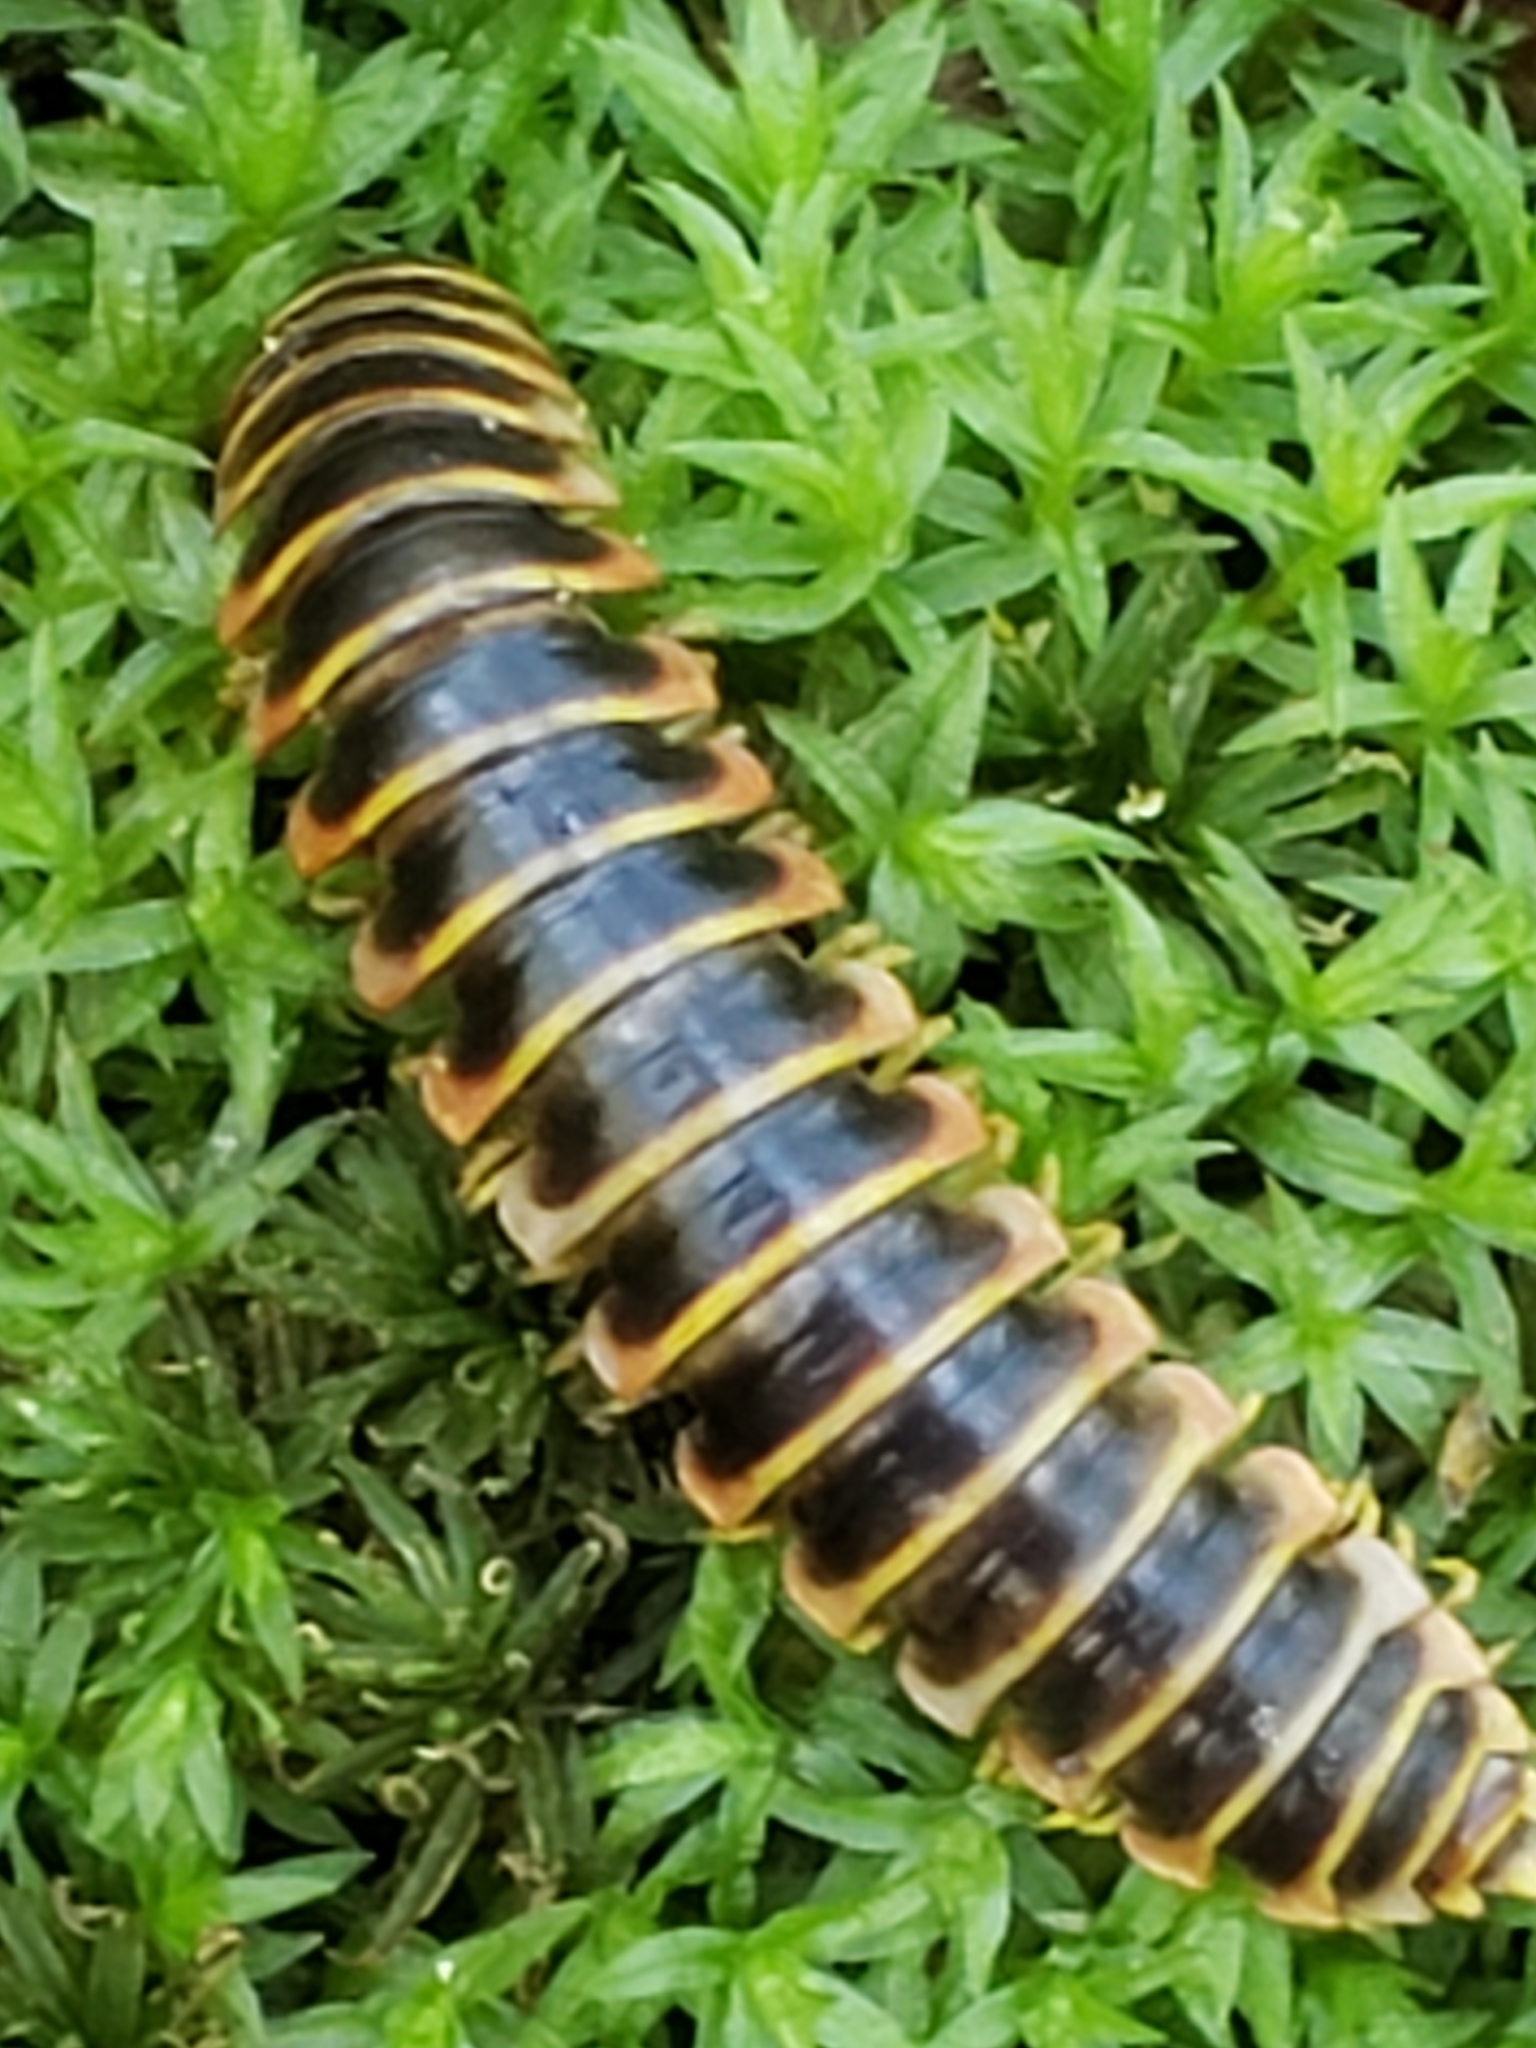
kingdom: Animalia
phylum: Arthropoda
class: Diplopoda
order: Polydesmida
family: Xystodesmidae
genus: Apheloria
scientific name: Apheloria virginiensis
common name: Black-and-gold flat millipede
